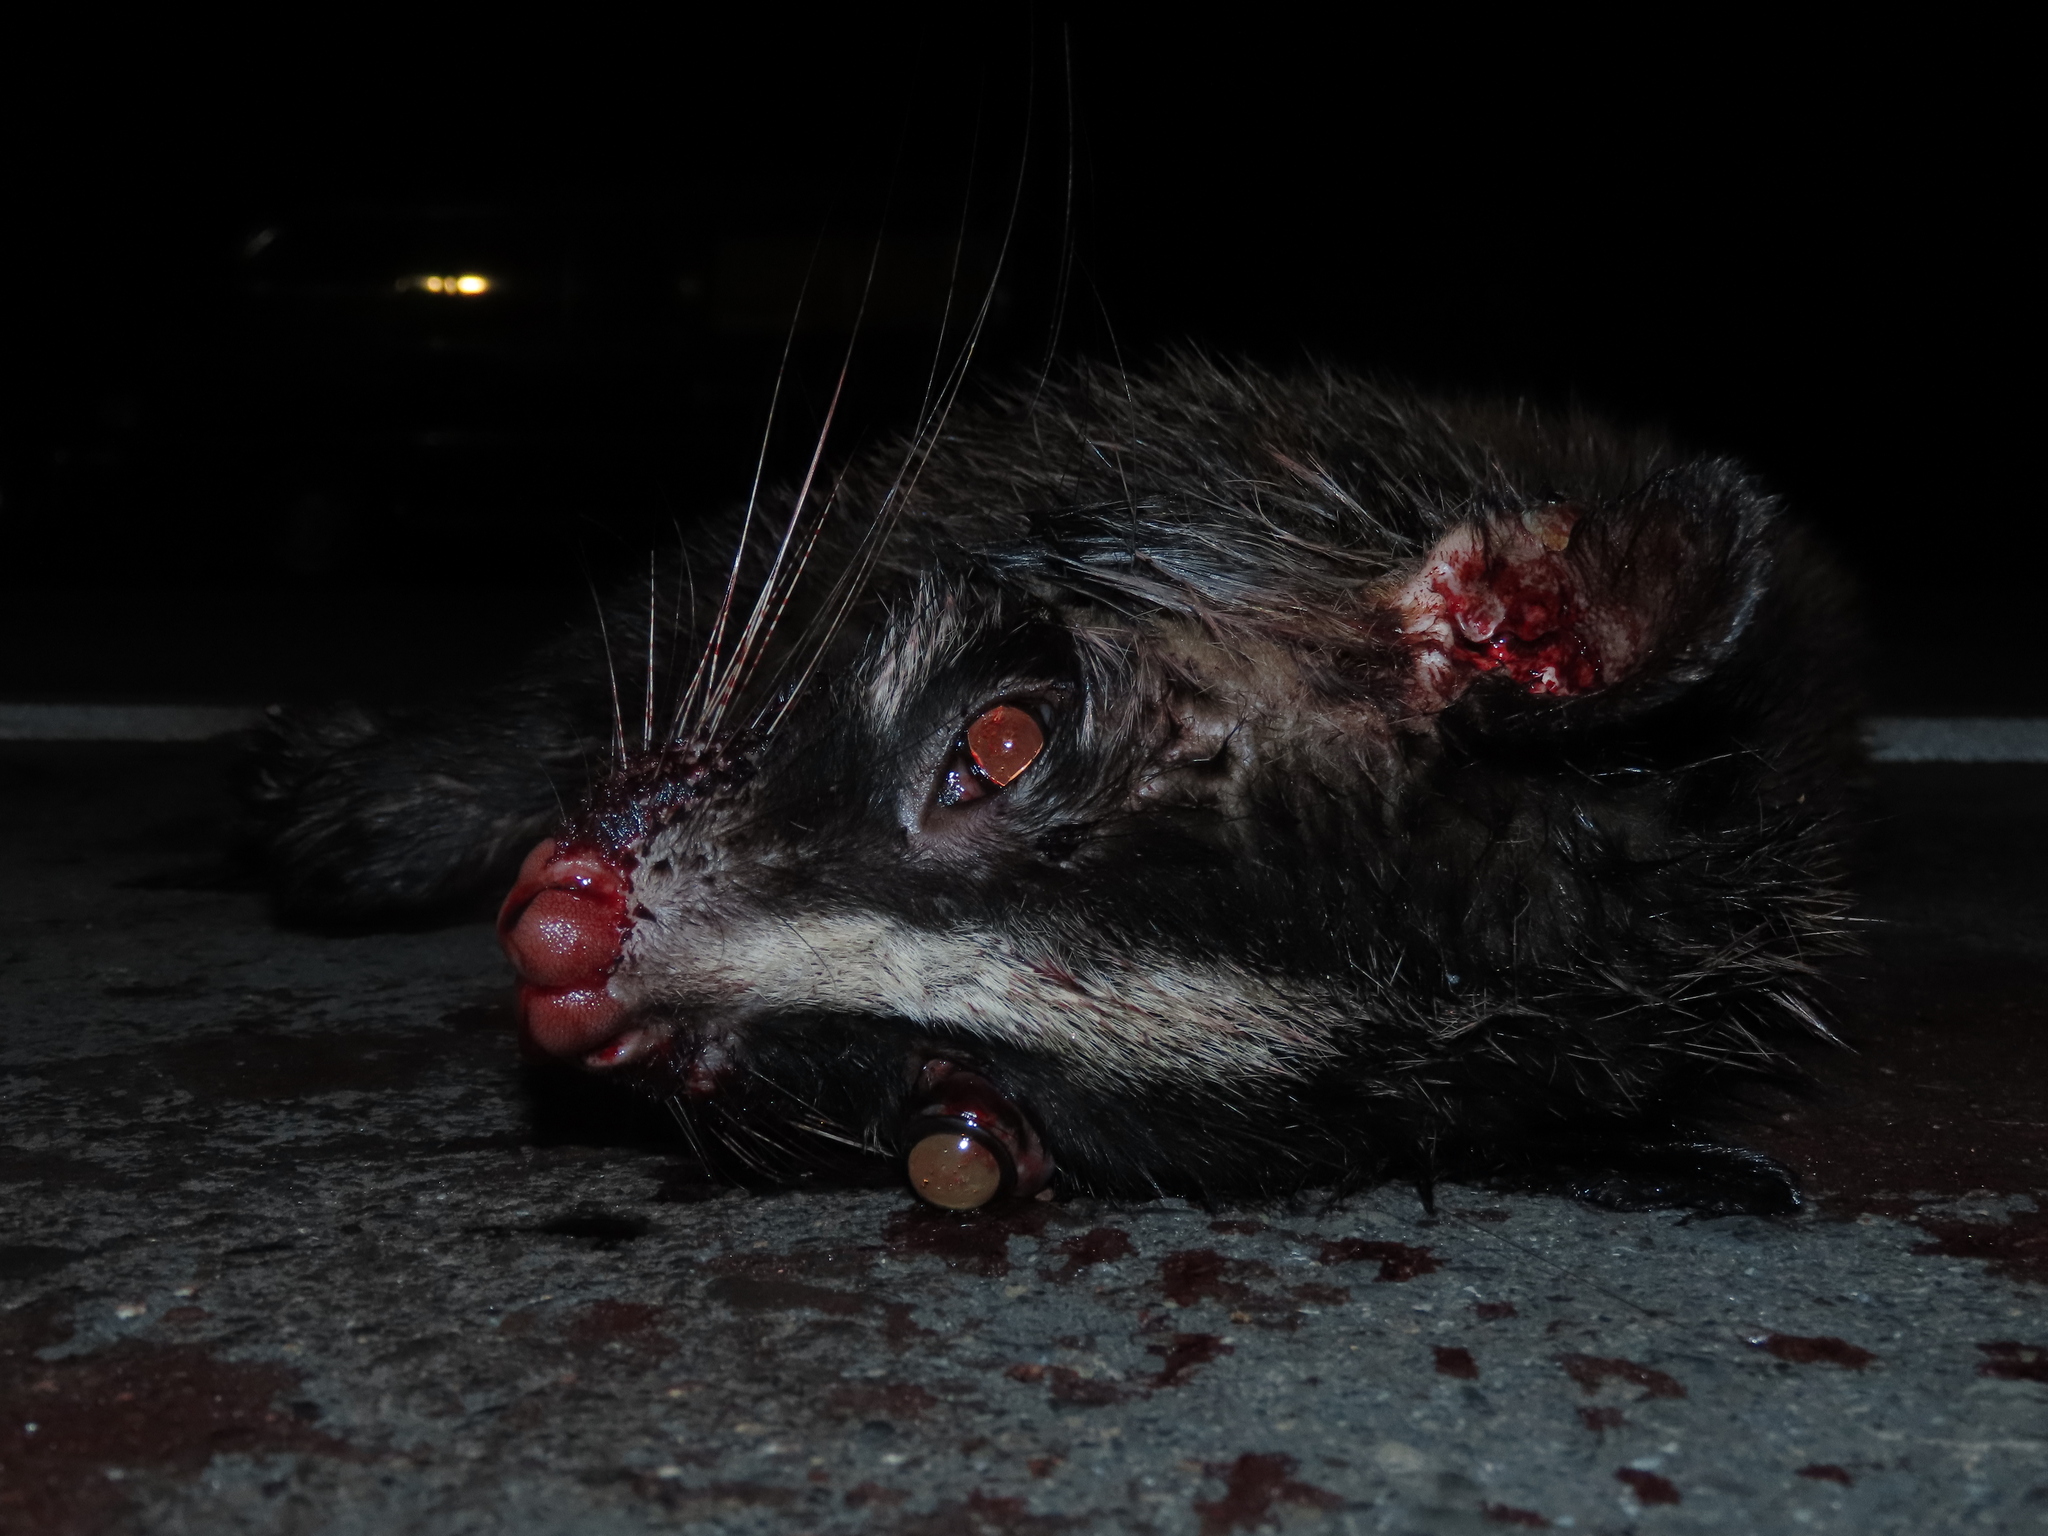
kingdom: Animalia
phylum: Chordata
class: Mammalia
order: Carnivora
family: Viverridae
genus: Paguma
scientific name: Paguma larvata
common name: Masked palm civet
